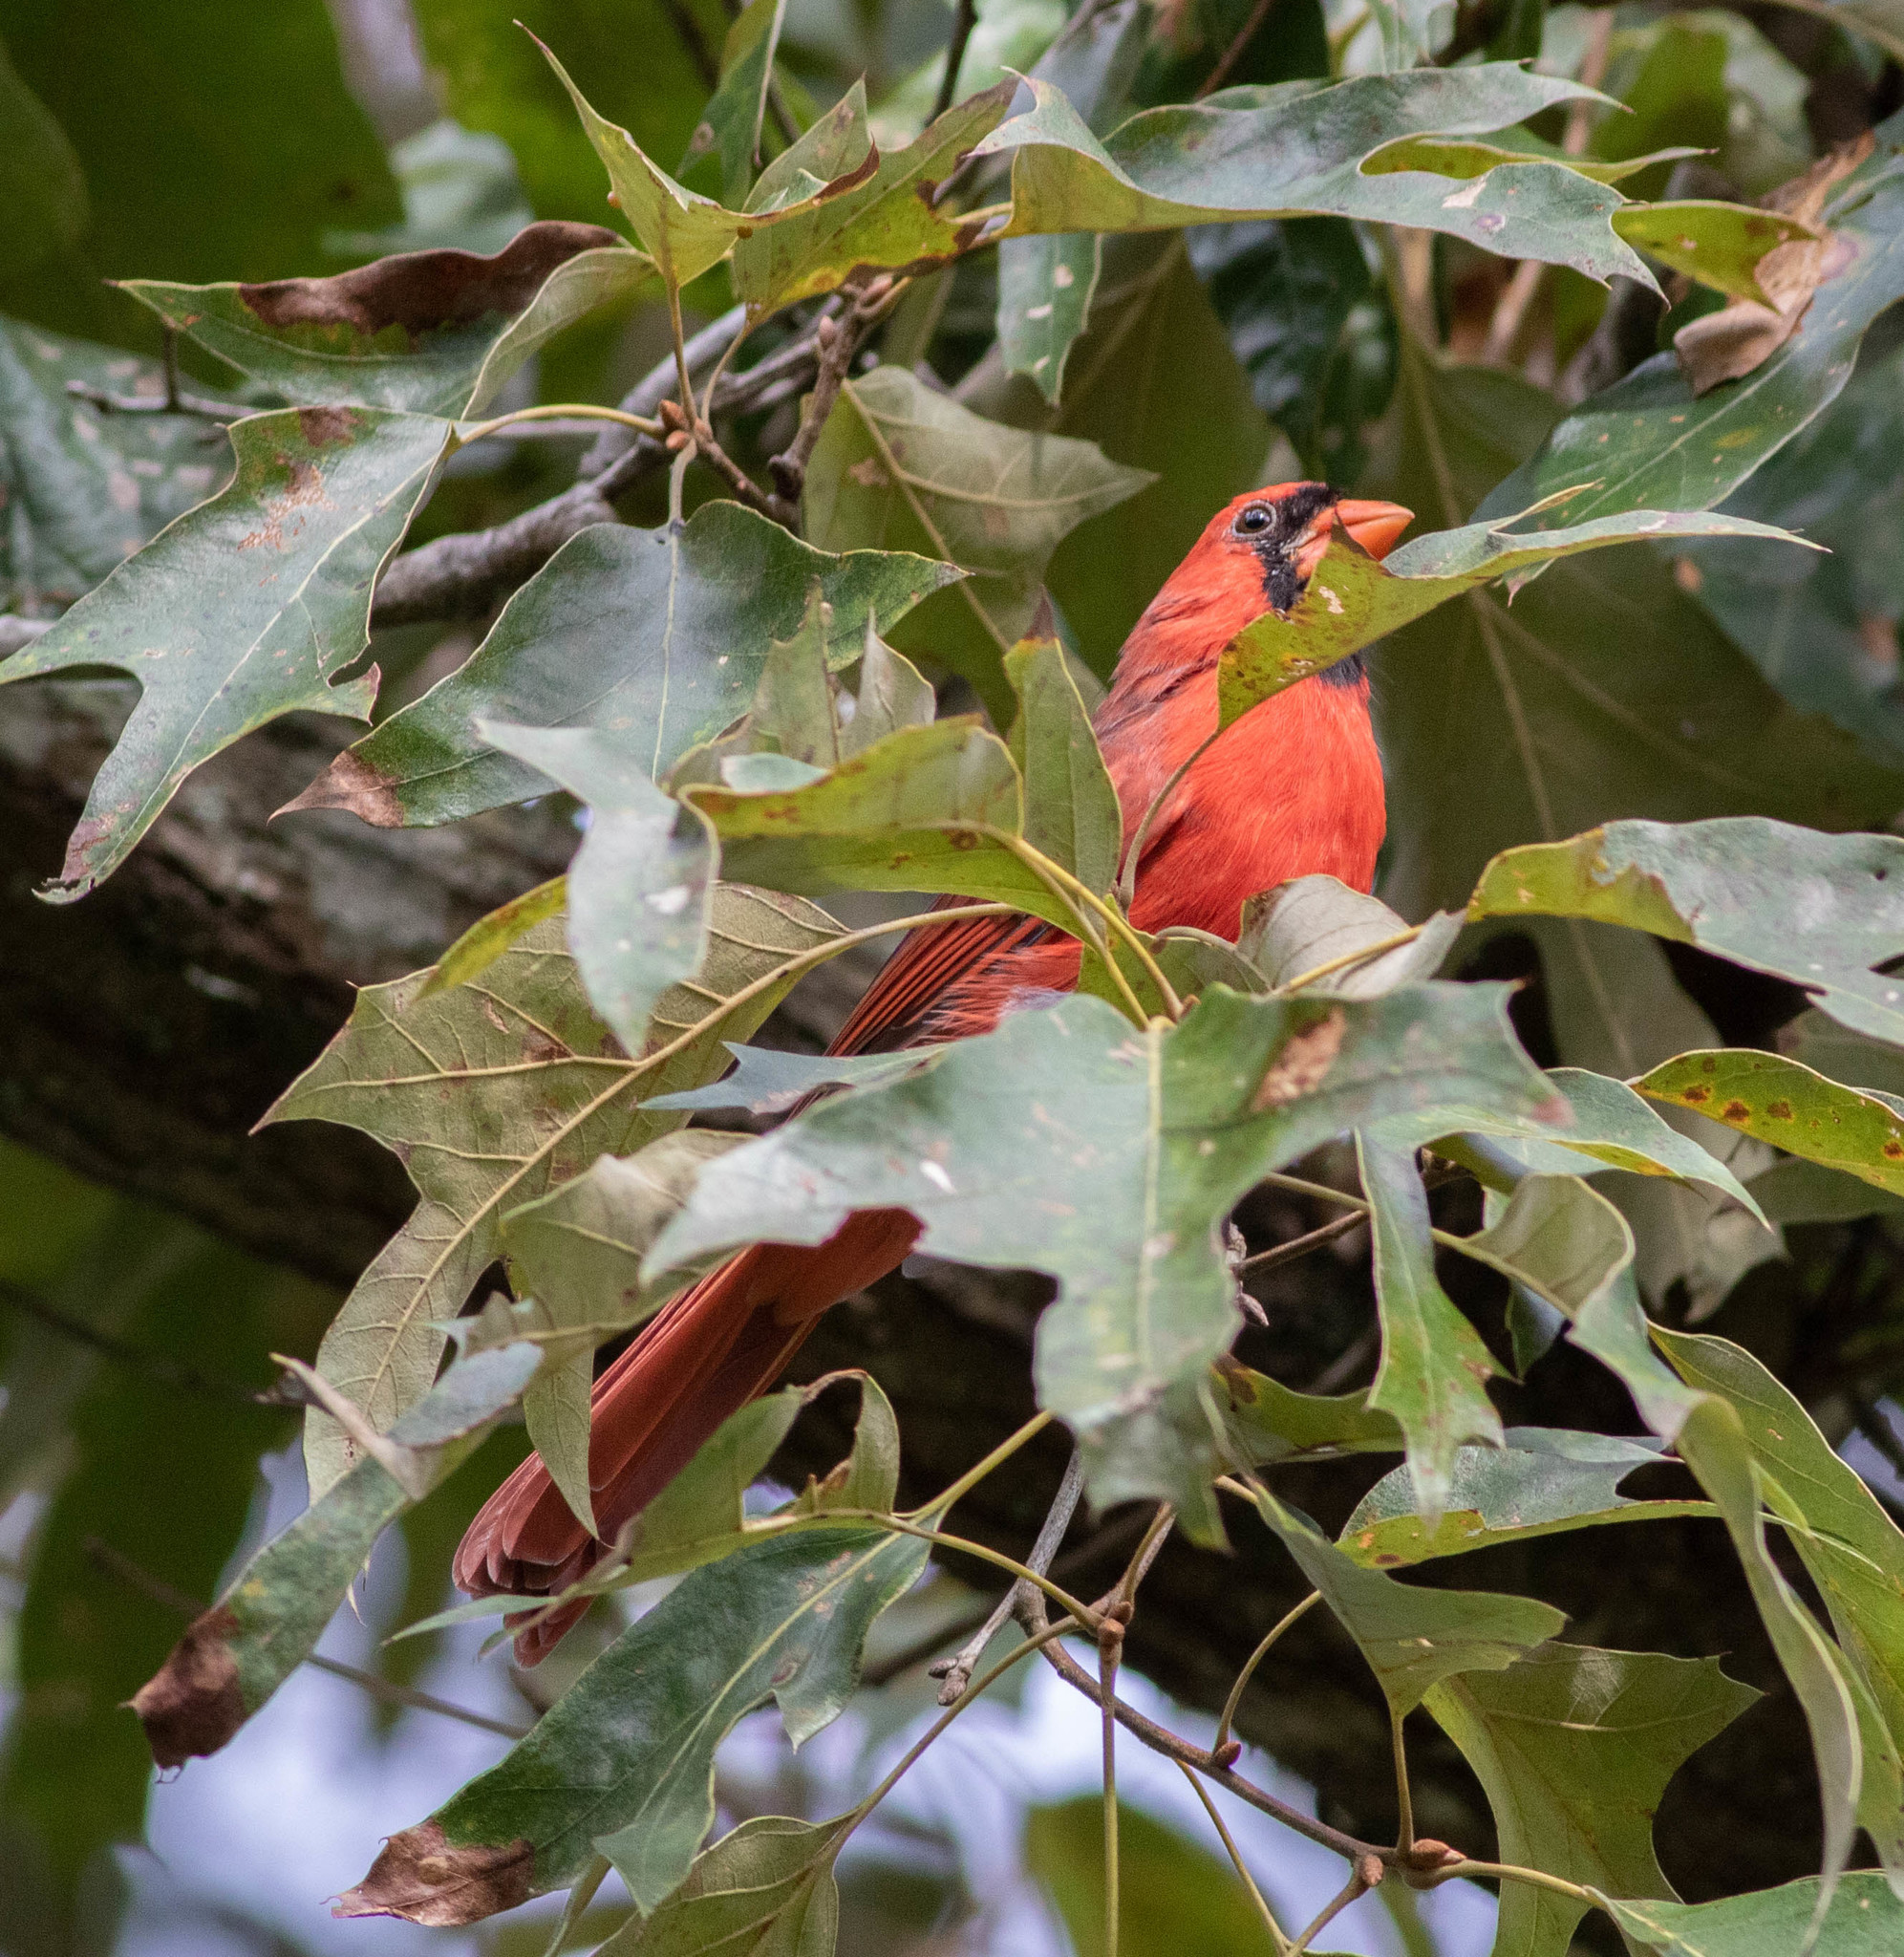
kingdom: Animalia
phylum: Chordata
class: Aves
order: Passeriformes
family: Cardinalidae
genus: Cardinalis
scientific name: Cardinalis cardinalis
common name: Northern cardinal
